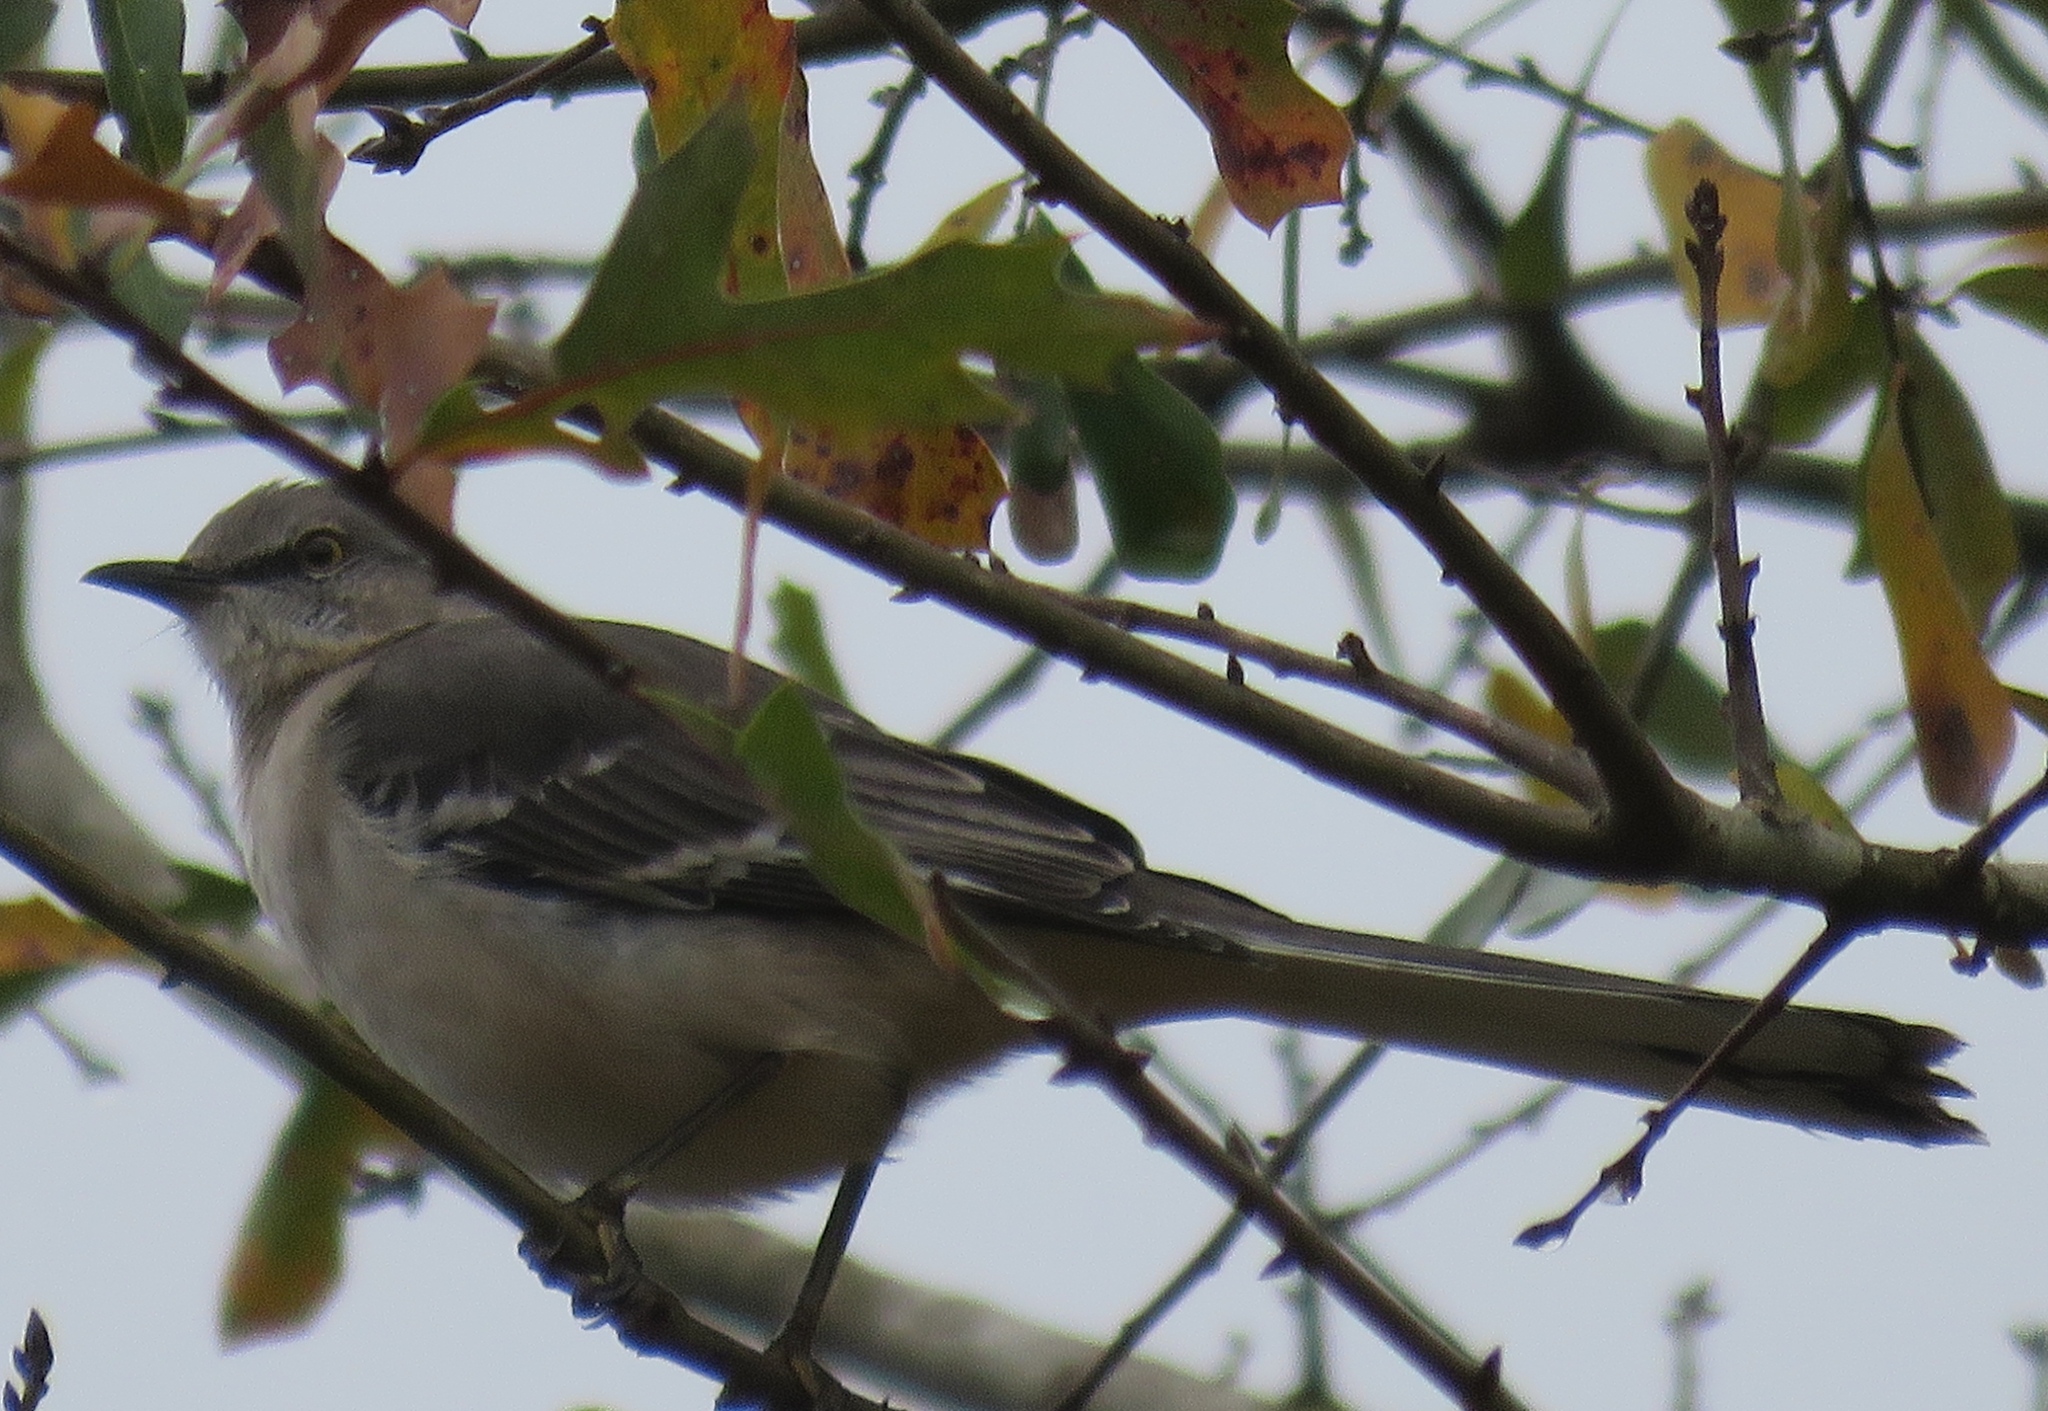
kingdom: Animalia
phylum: Chordata
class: Aves
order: Passeriformes
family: Mimidae
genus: Mimus
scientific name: Mimus polyglottos
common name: Northern mockingbird
